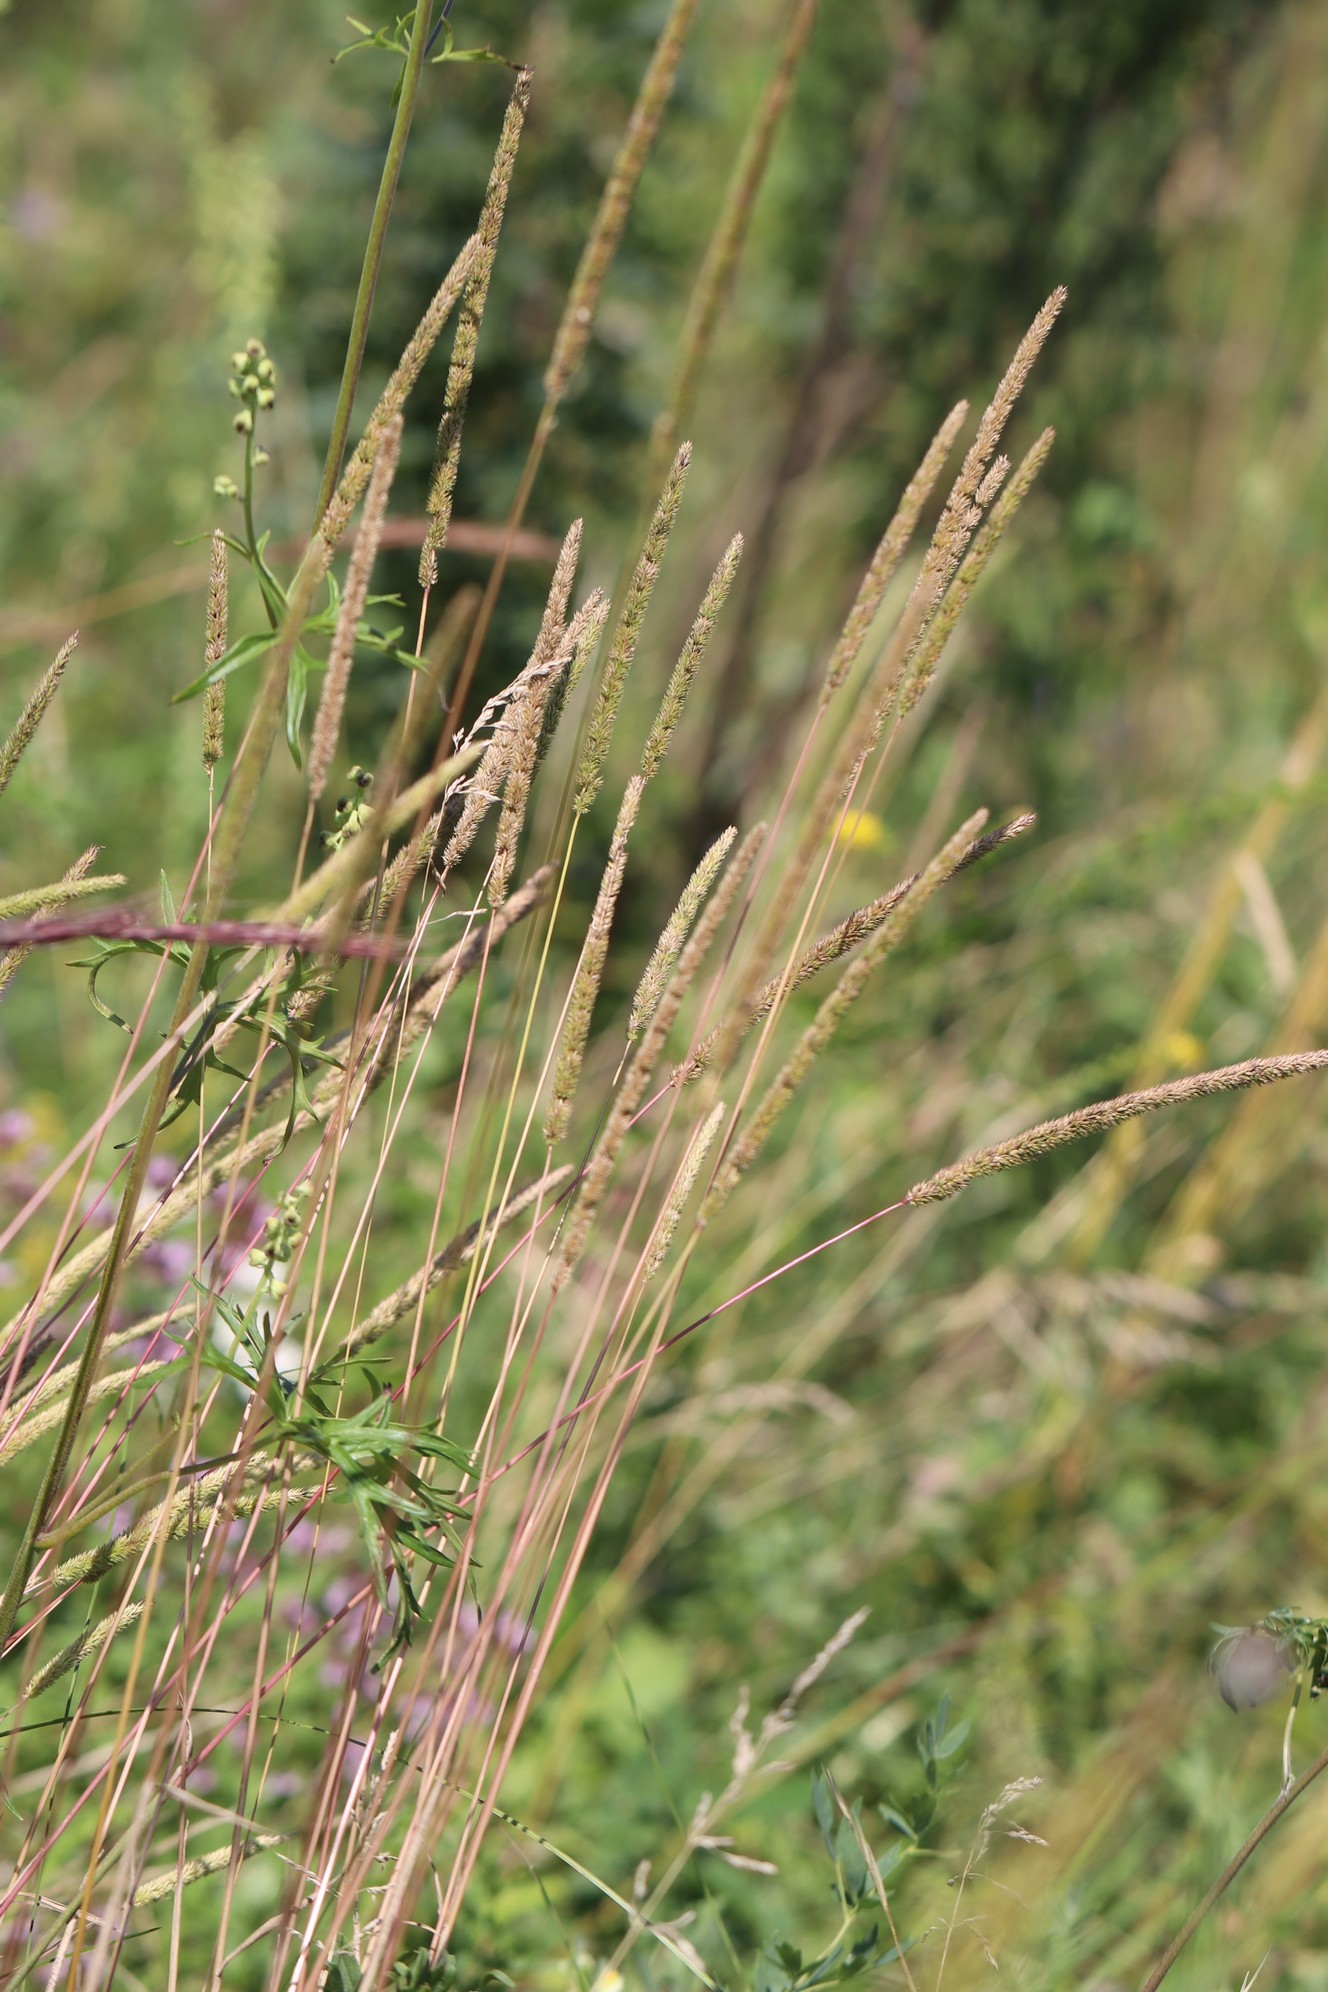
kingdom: Plantae
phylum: Tracheophyta
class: Liliopsida
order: Poales
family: Poaceae
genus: Phleum
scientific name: Phleum phleoides
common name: Purple-stem cat's-tail
